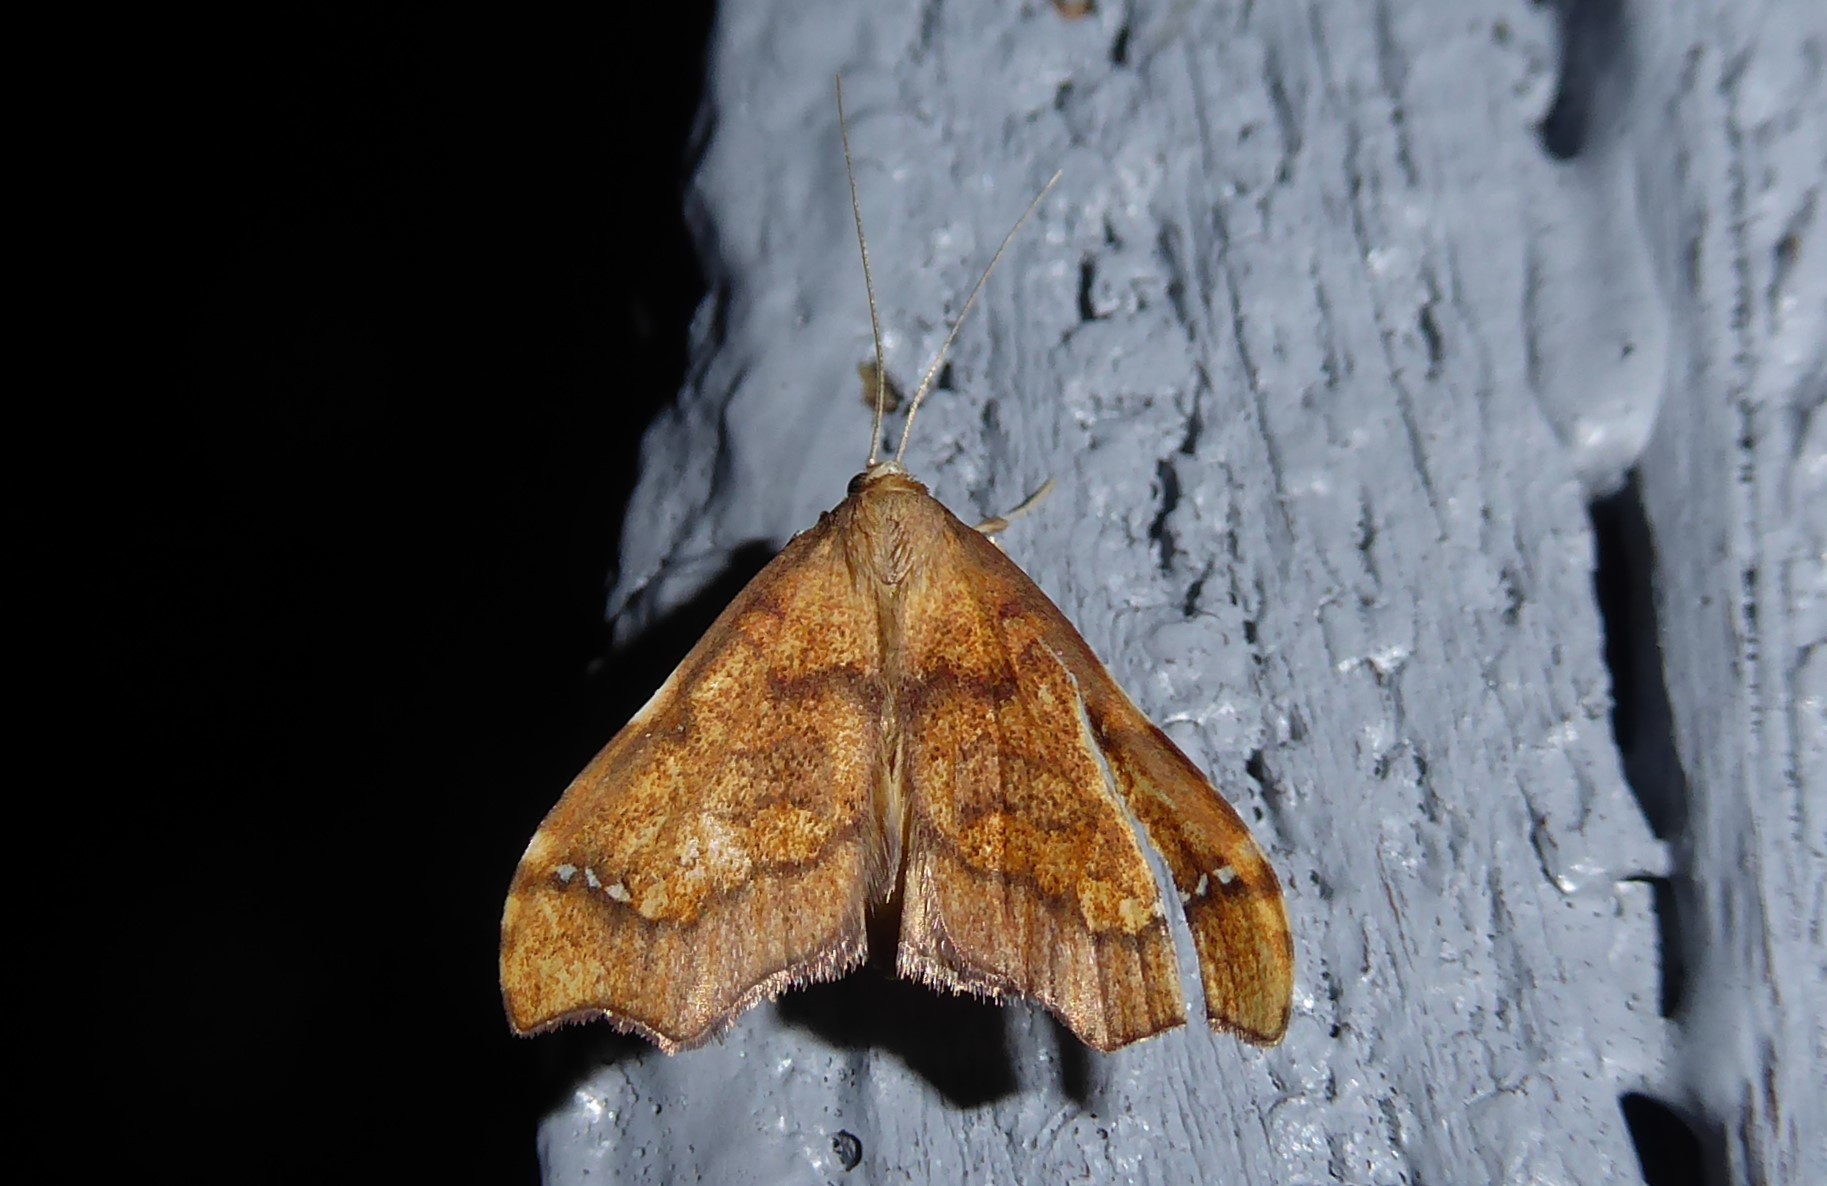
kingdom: Animalia
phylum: Arthropoda
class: Insecta
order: Lepidoptera
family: Crambidae
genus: Deana
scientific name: Deana hybreasalis
